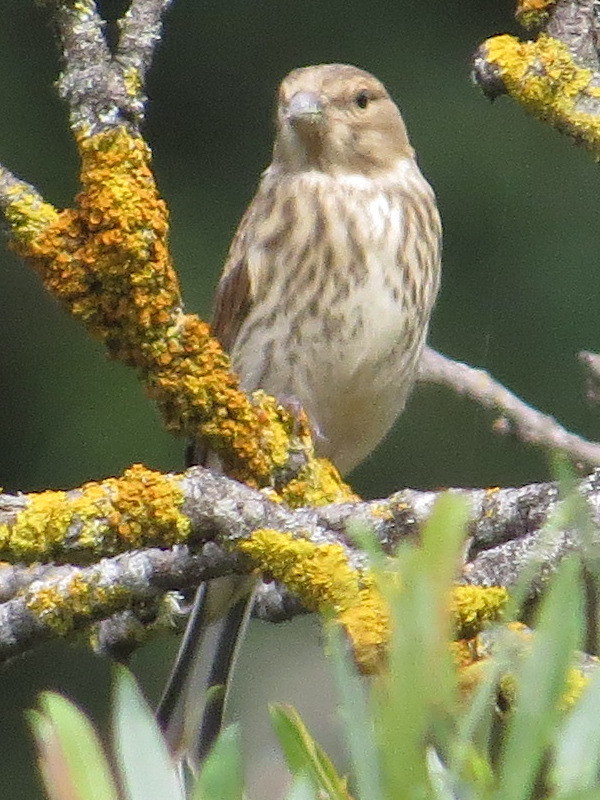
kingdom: Animalia
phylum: Chordata
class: Aves
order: Passeriformes
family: Fringillidae
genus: Linaria
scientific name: Linaria cannabina
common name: Common linnet
